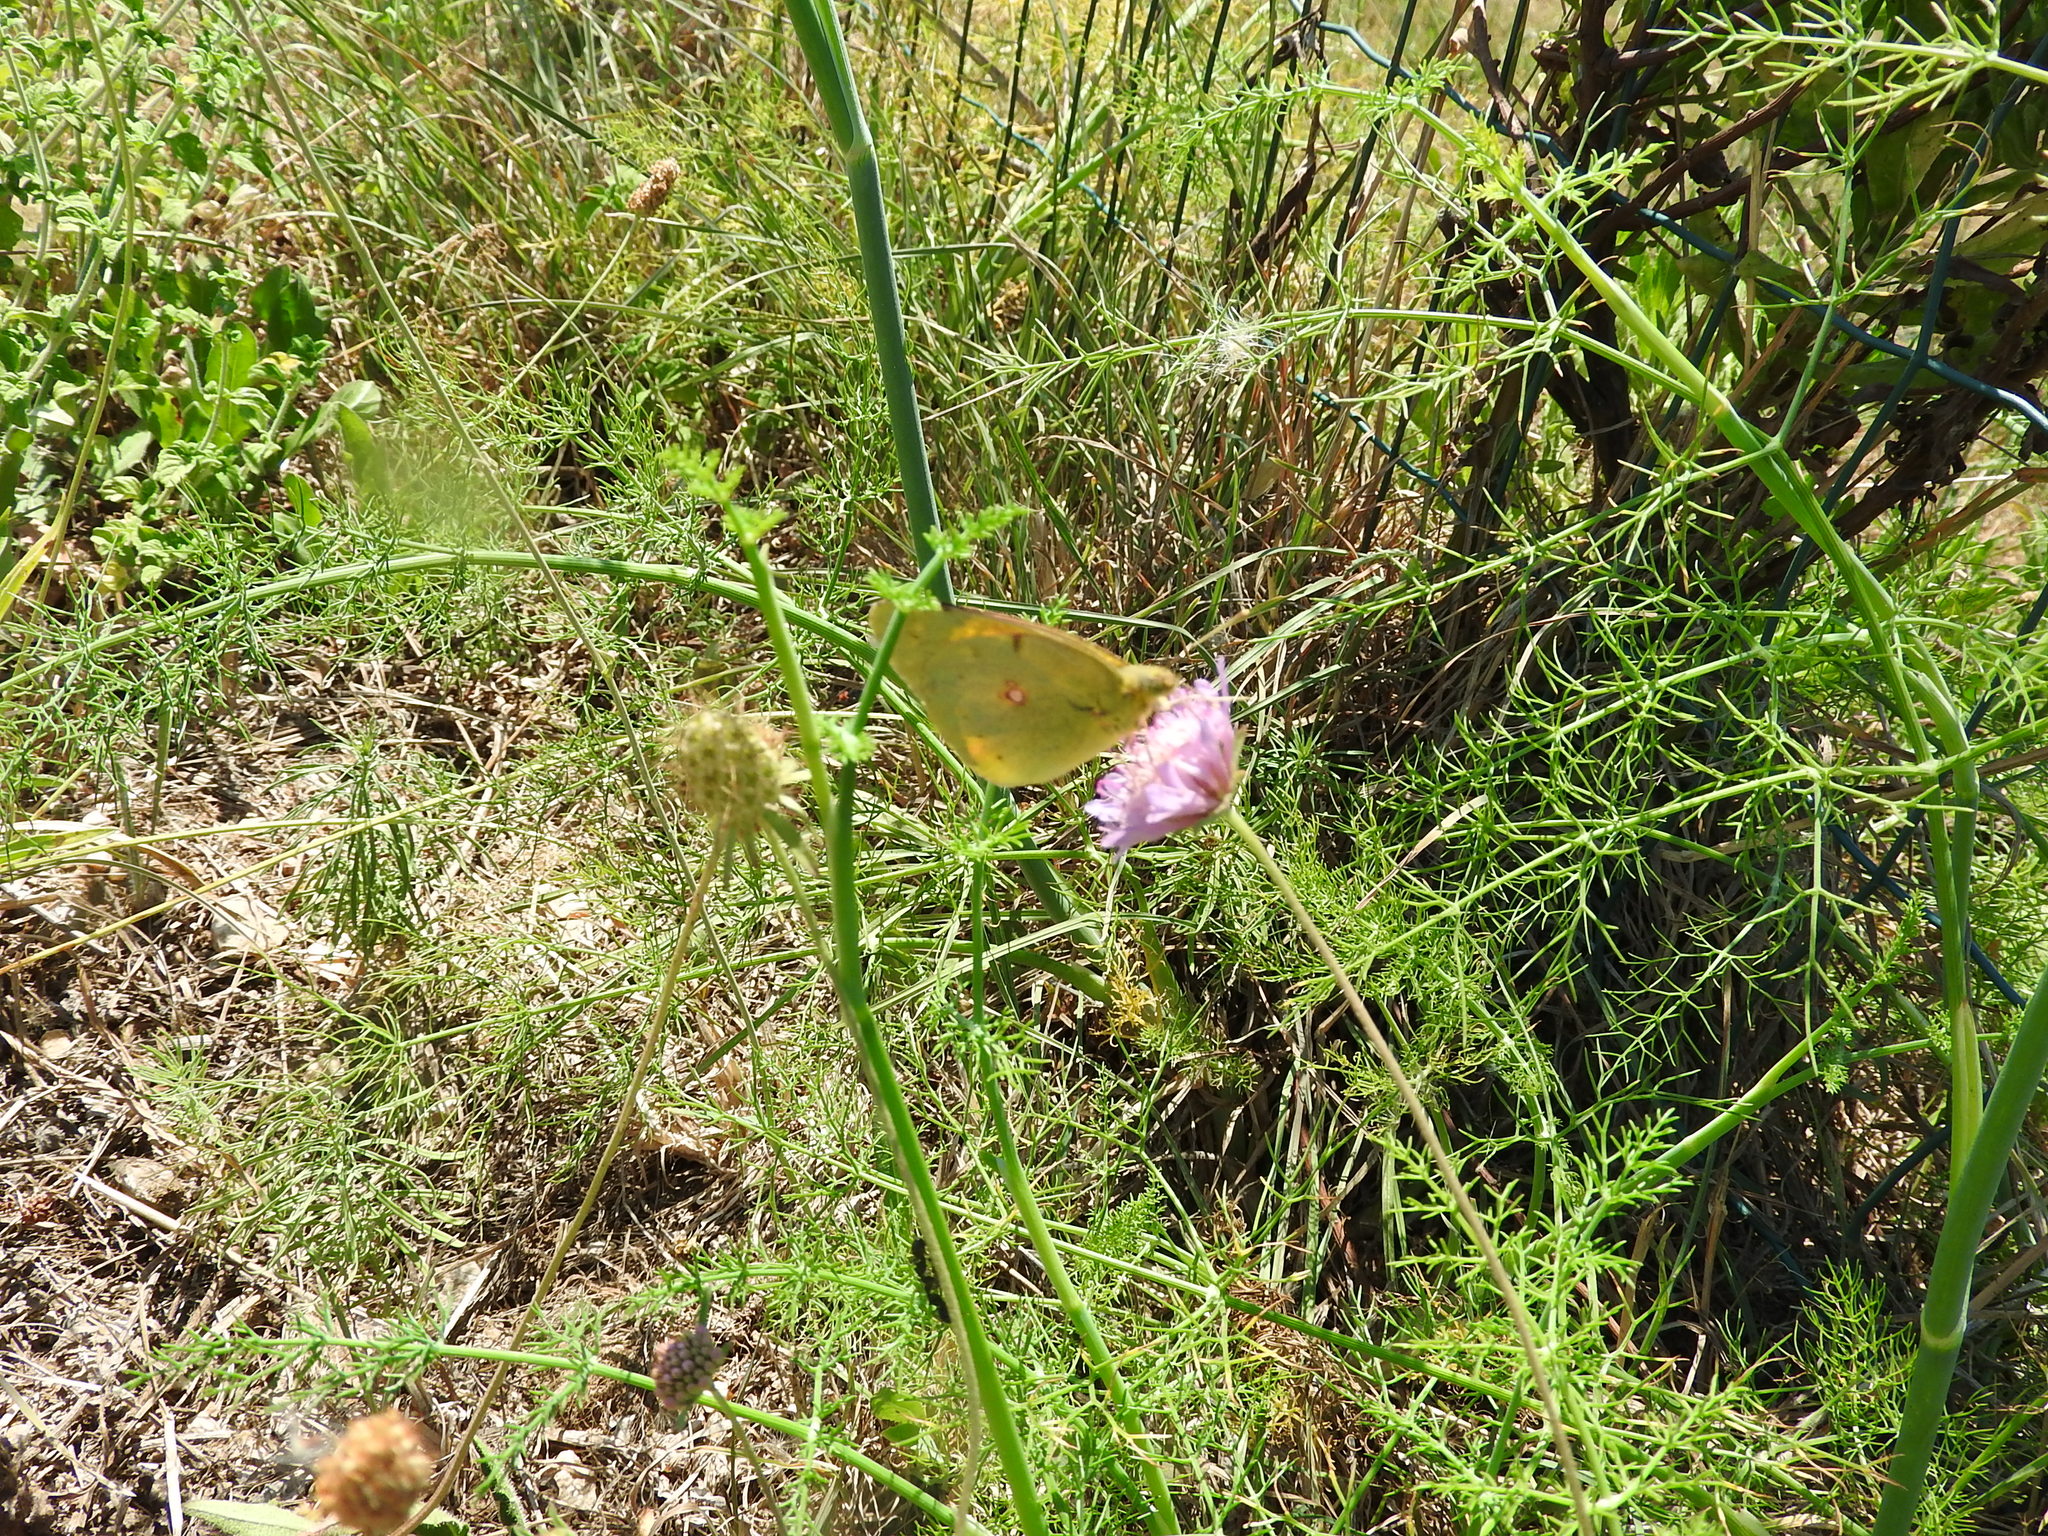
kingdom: Animalia
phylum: Arthropoda
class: Insecta
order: Lepidoptera
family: Pieridae
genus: Colias
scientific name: Colias croceus
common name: Clouded yellow
